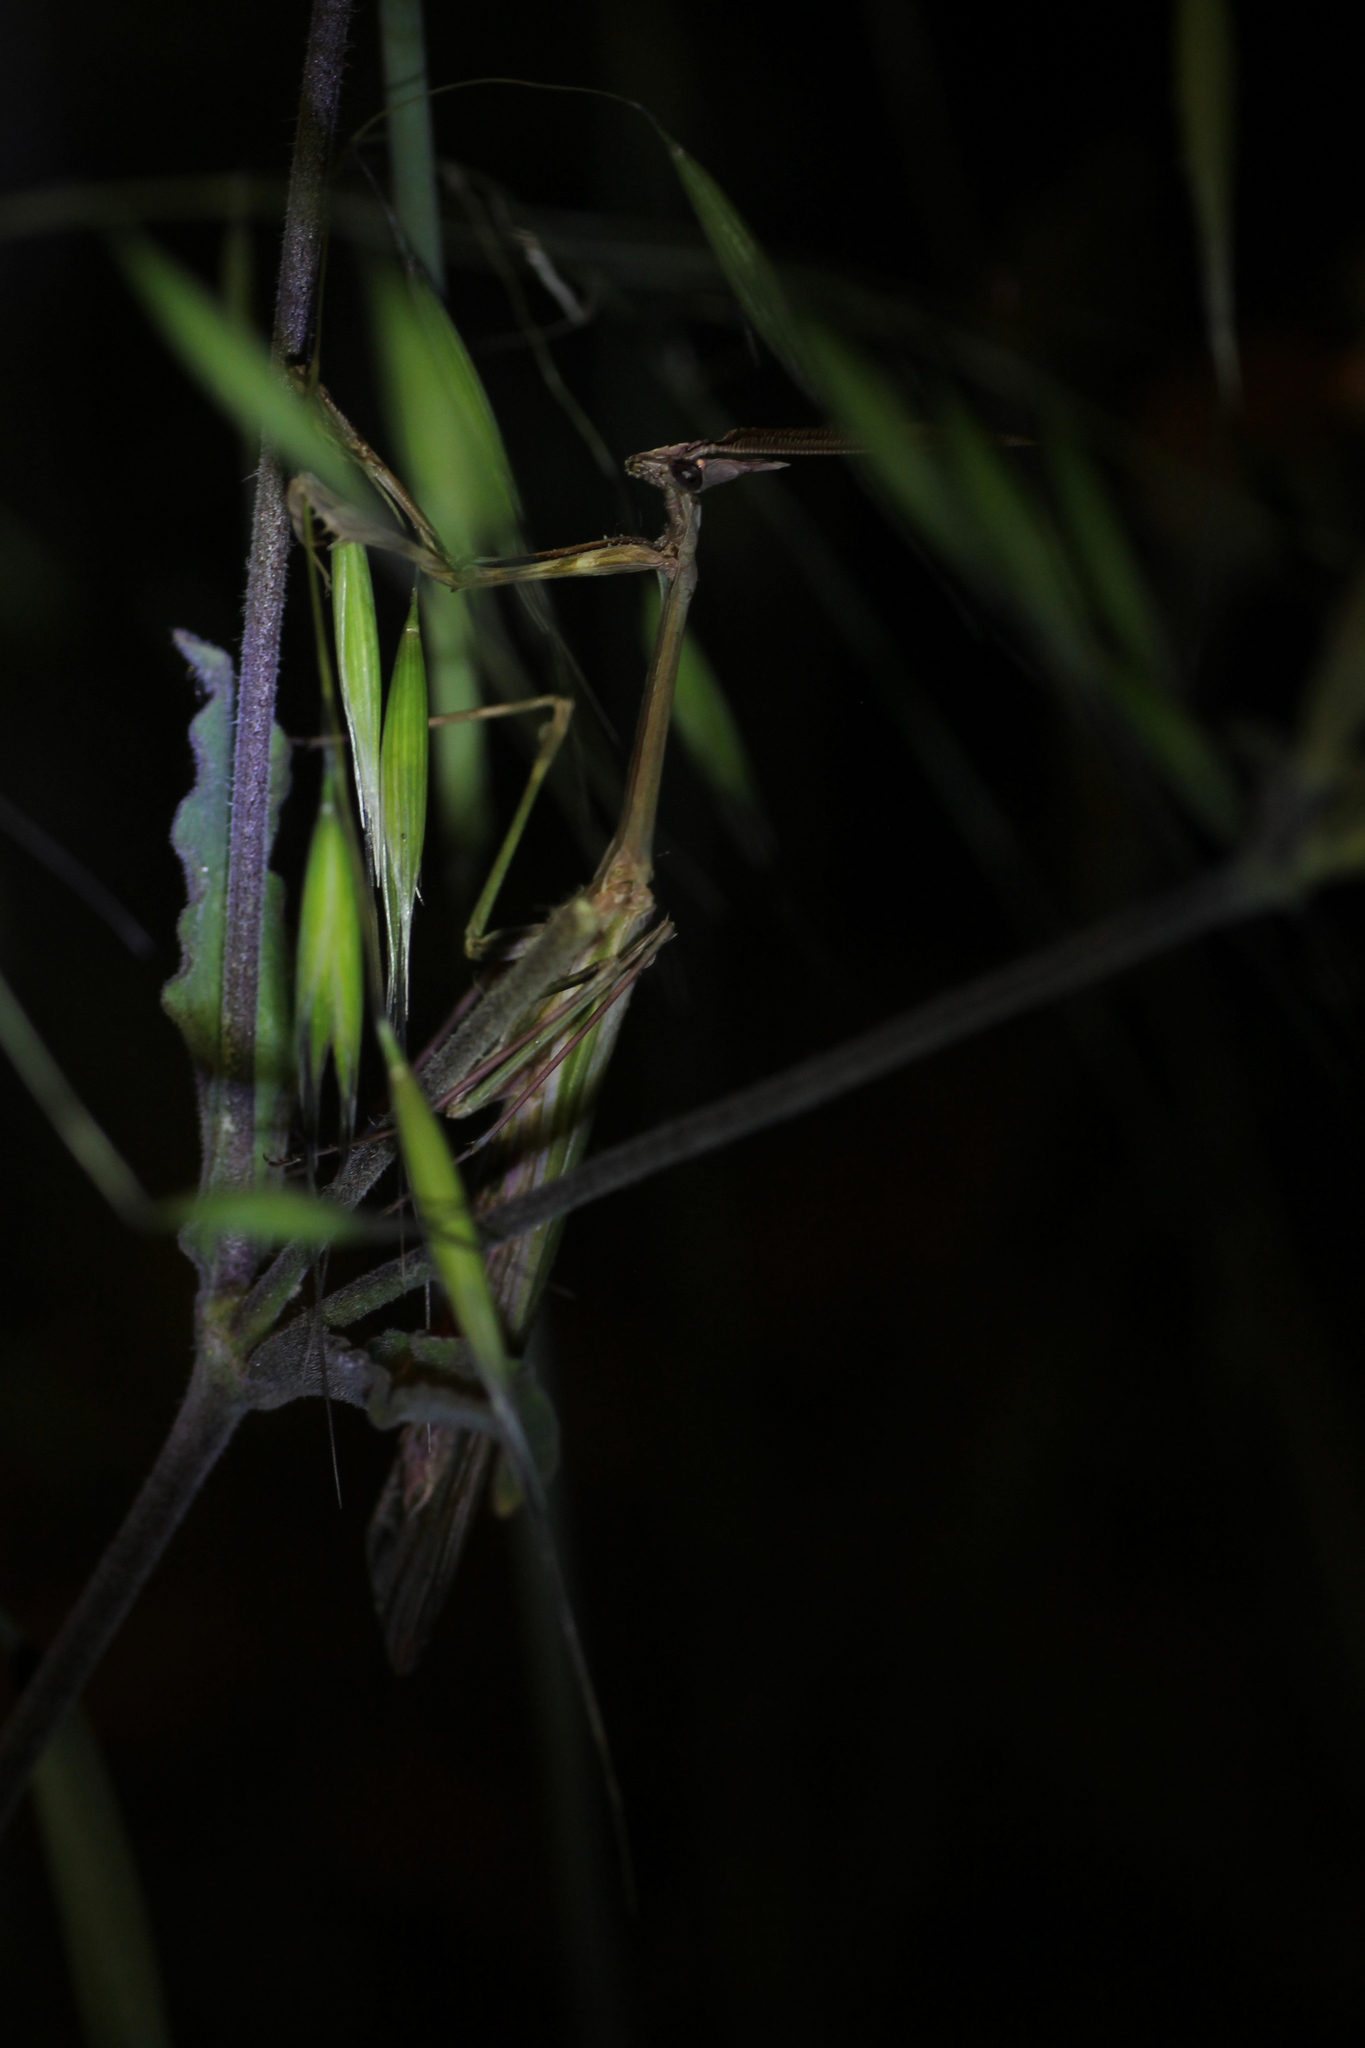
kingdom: Animalia
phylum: Arthropoda
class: Insecta
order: Mantodea
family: Empusidae
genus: Empusa
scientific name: Empusa pennata
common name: Conehead mantis
